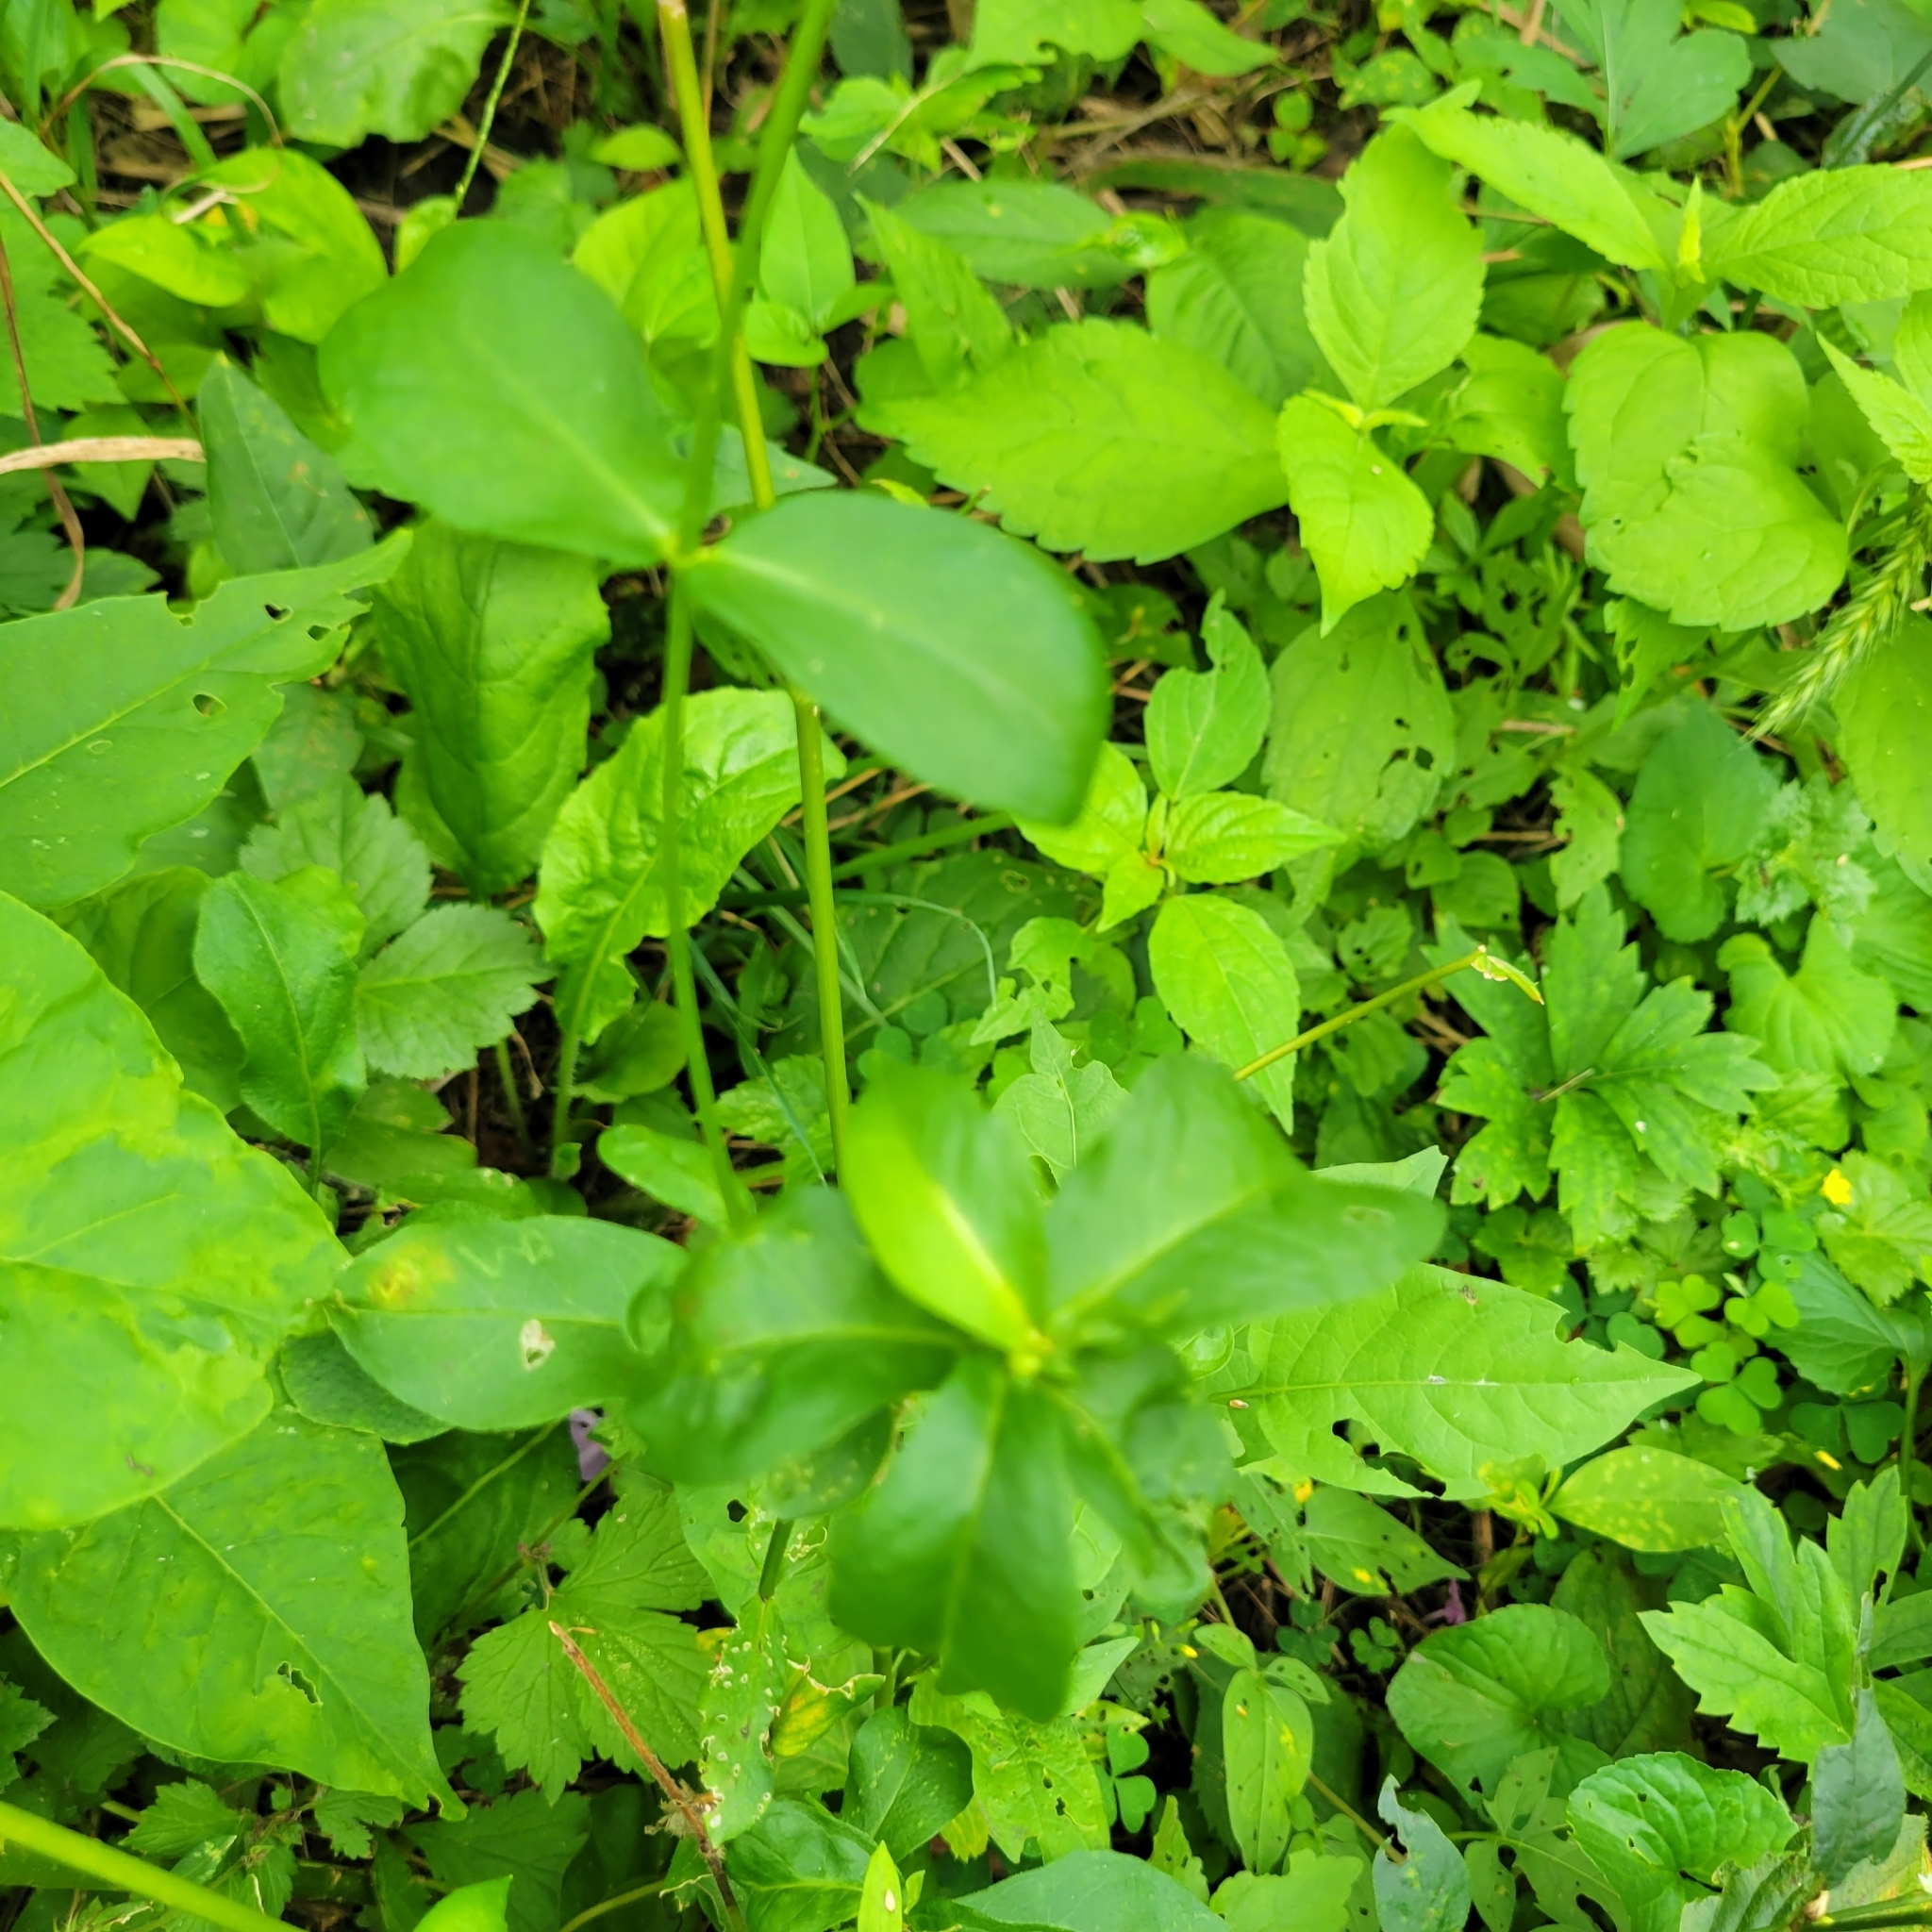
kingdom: Plantae
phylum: Tracheophyta
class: Magnoliopsida
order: Ericales
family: Polemoniaceae
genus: Phlox
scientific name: Phlox paniculata
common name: Fall phlox
